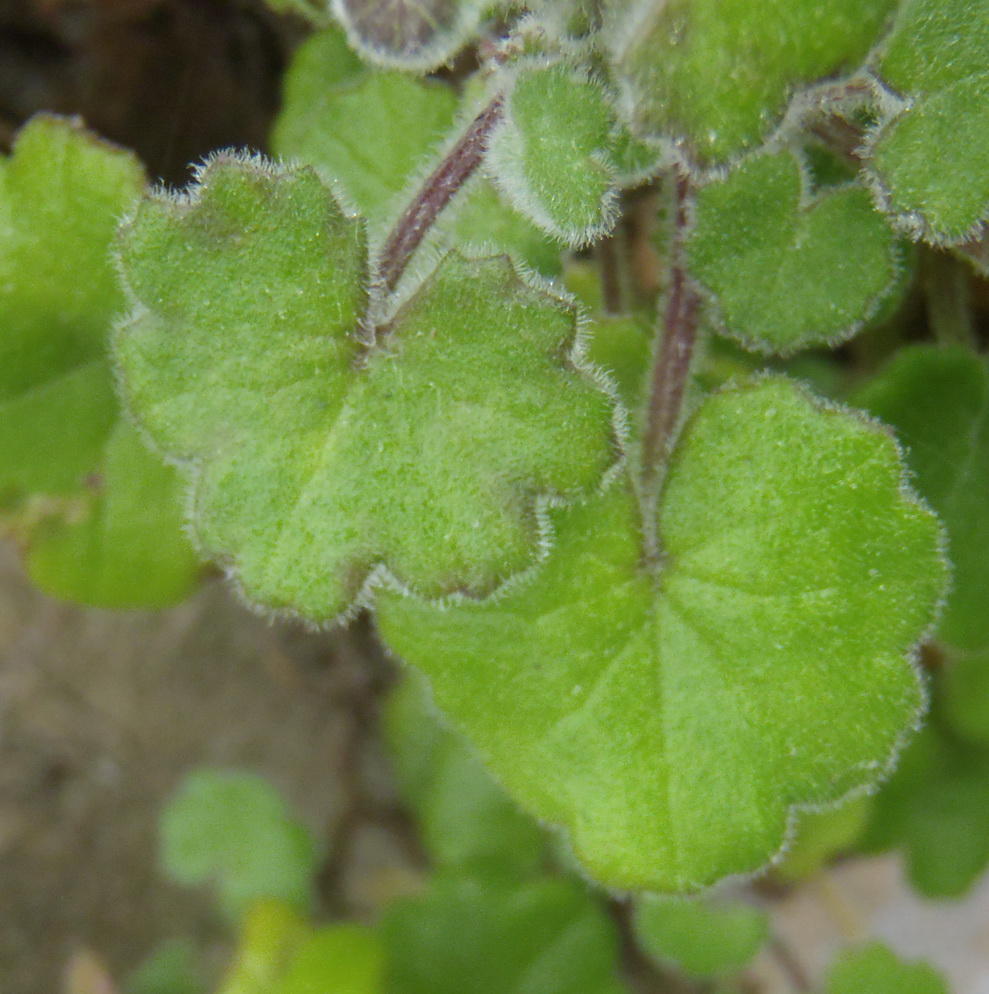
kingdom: Plantae
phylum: Tracheophyta
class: Magnoliopsida
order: Asterales
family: Asteraceae
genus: Cineraria
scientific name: Cineraria geifolia
